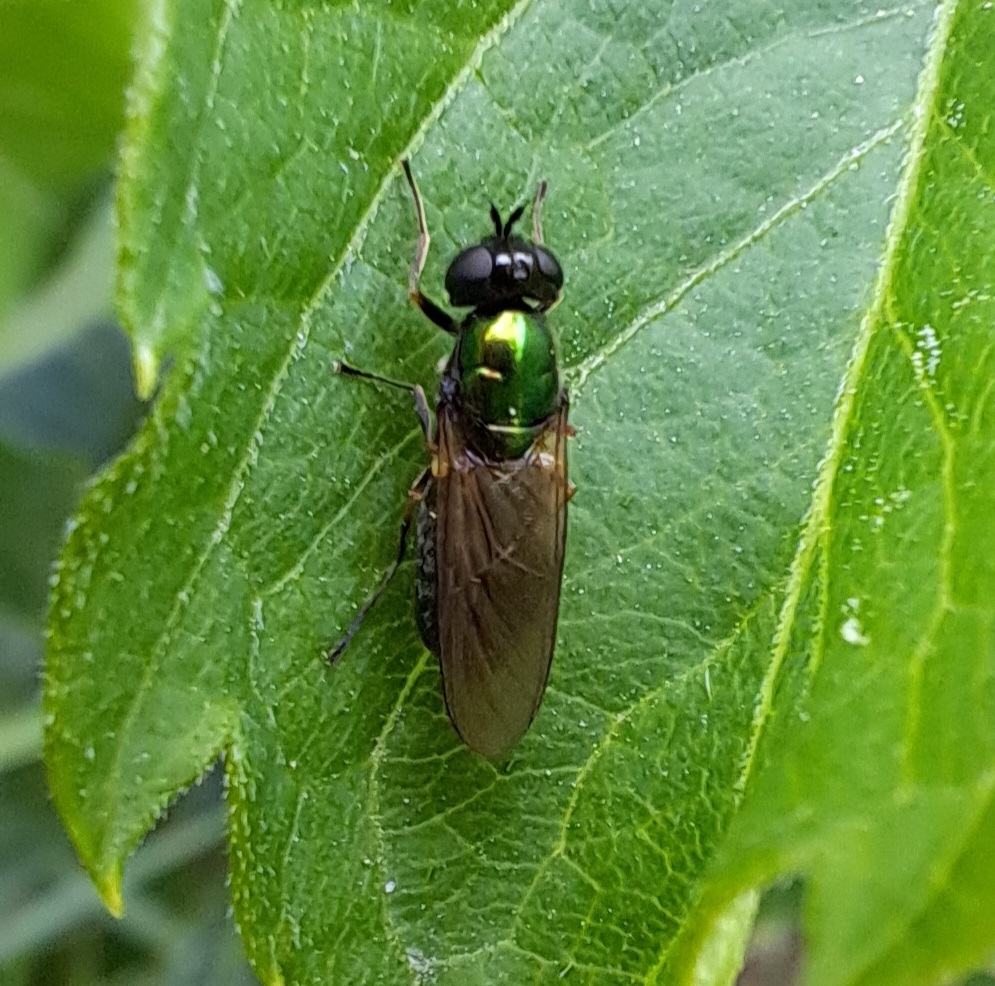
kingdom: Animalia
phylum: Arthropoda
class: Insecta
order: Diptera
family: Stratiomyidae
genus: Chloromyia
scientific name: Chloromyia formosa
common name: Soldier fly
